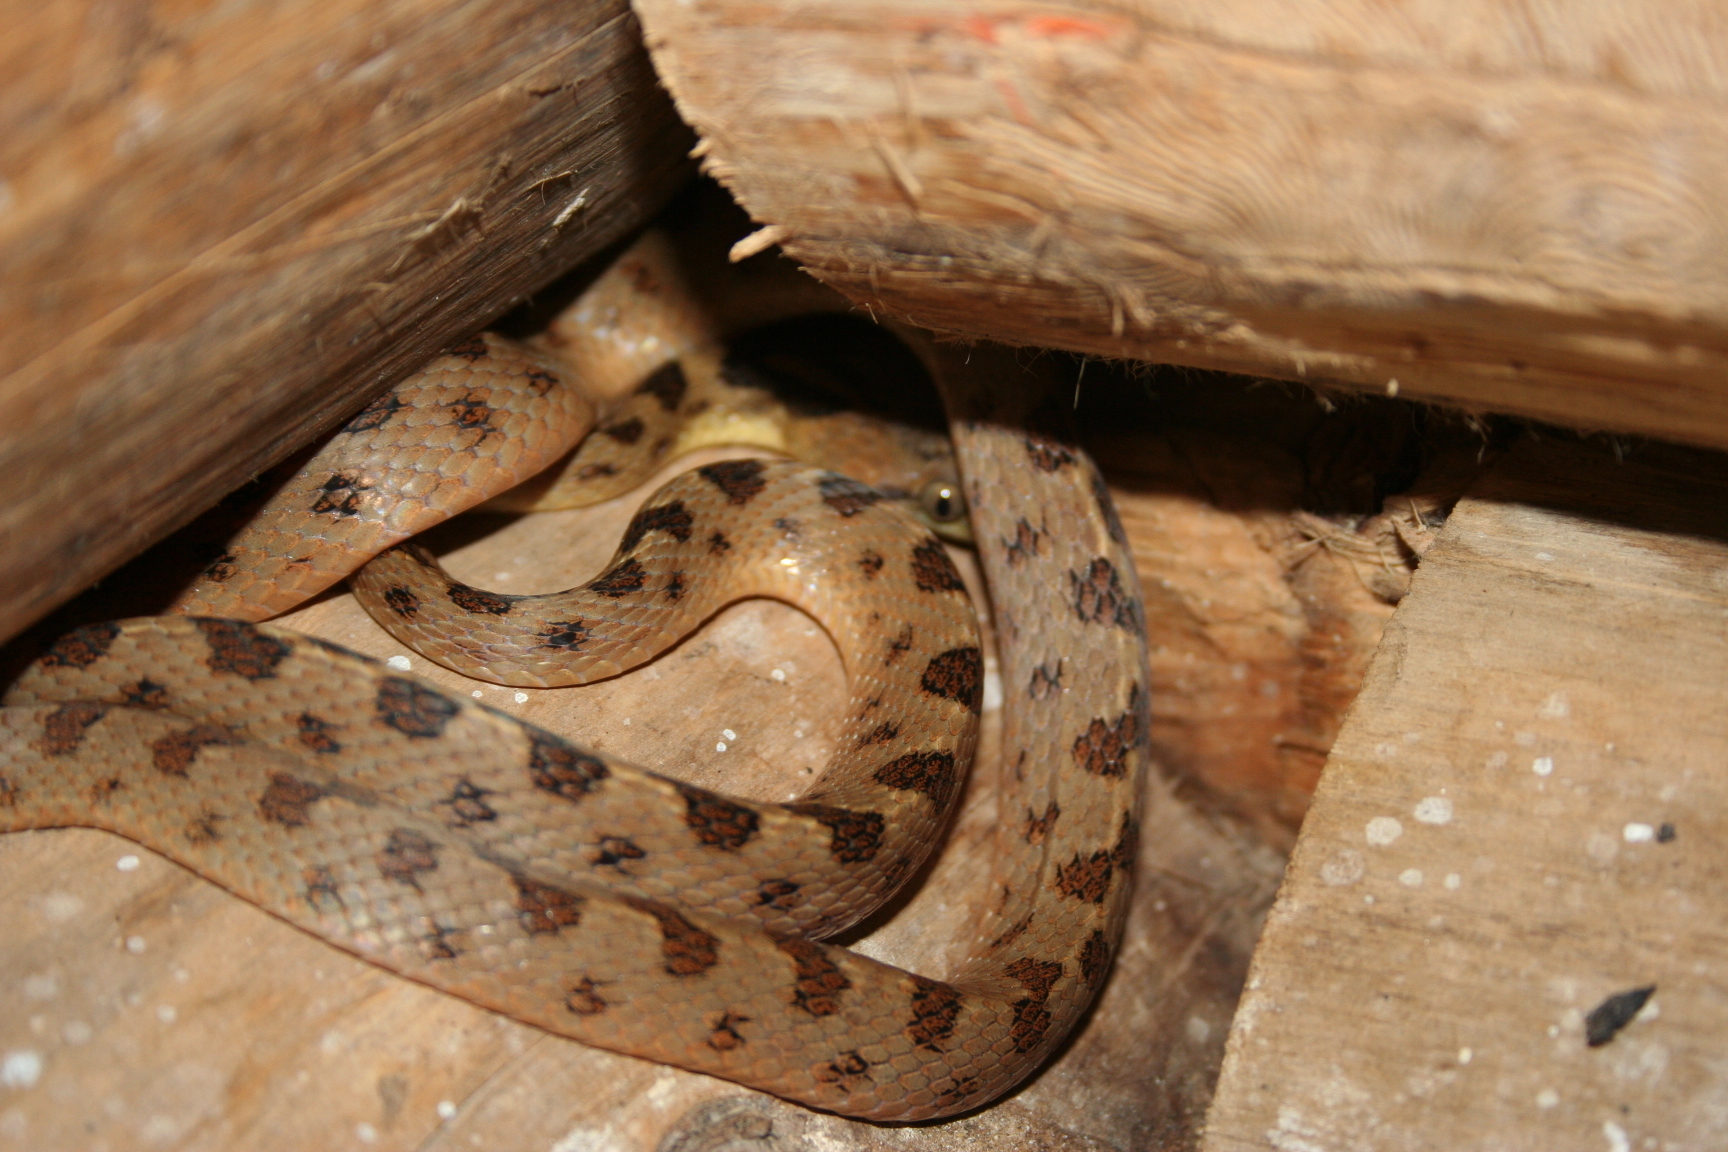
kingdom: Animalia
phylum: Chordata
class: Squamata
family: Colubridae
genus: Leptodeira
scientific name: Leptodeira septentrionalis
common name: Northern cat-eyed snake
